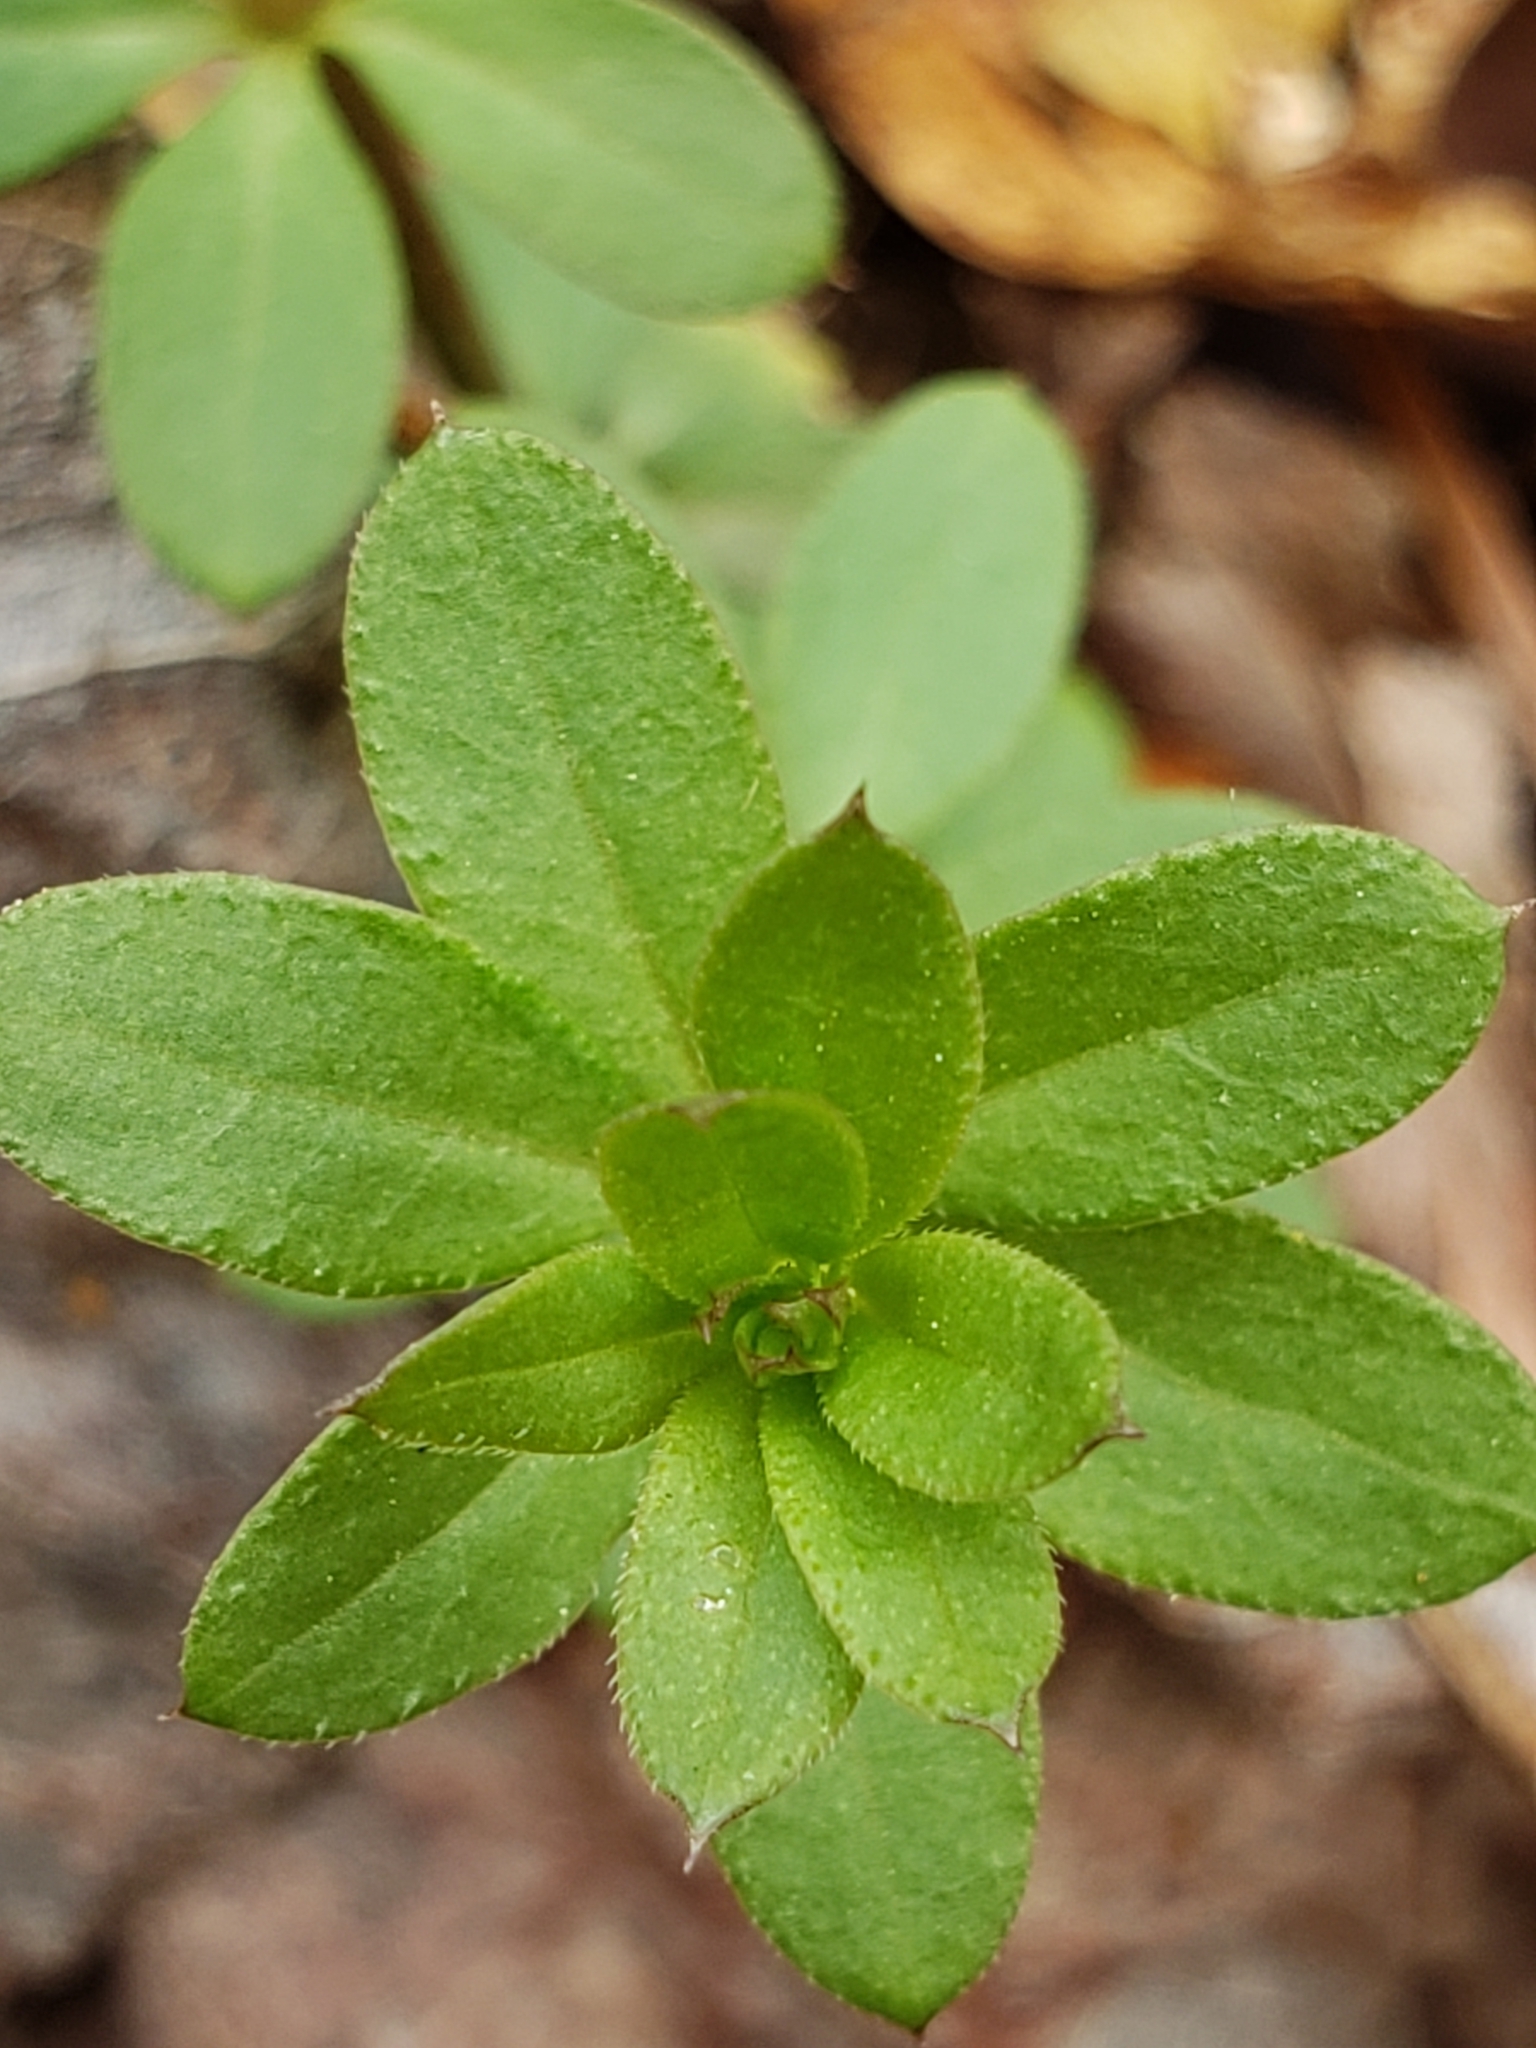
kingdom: Plantae
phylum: Tracheophyta
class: Magnoliopsida
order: Gentianales
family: Rubiaceae
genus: Galium
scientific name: Galium triflorum
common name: Fragrant bedstraw
